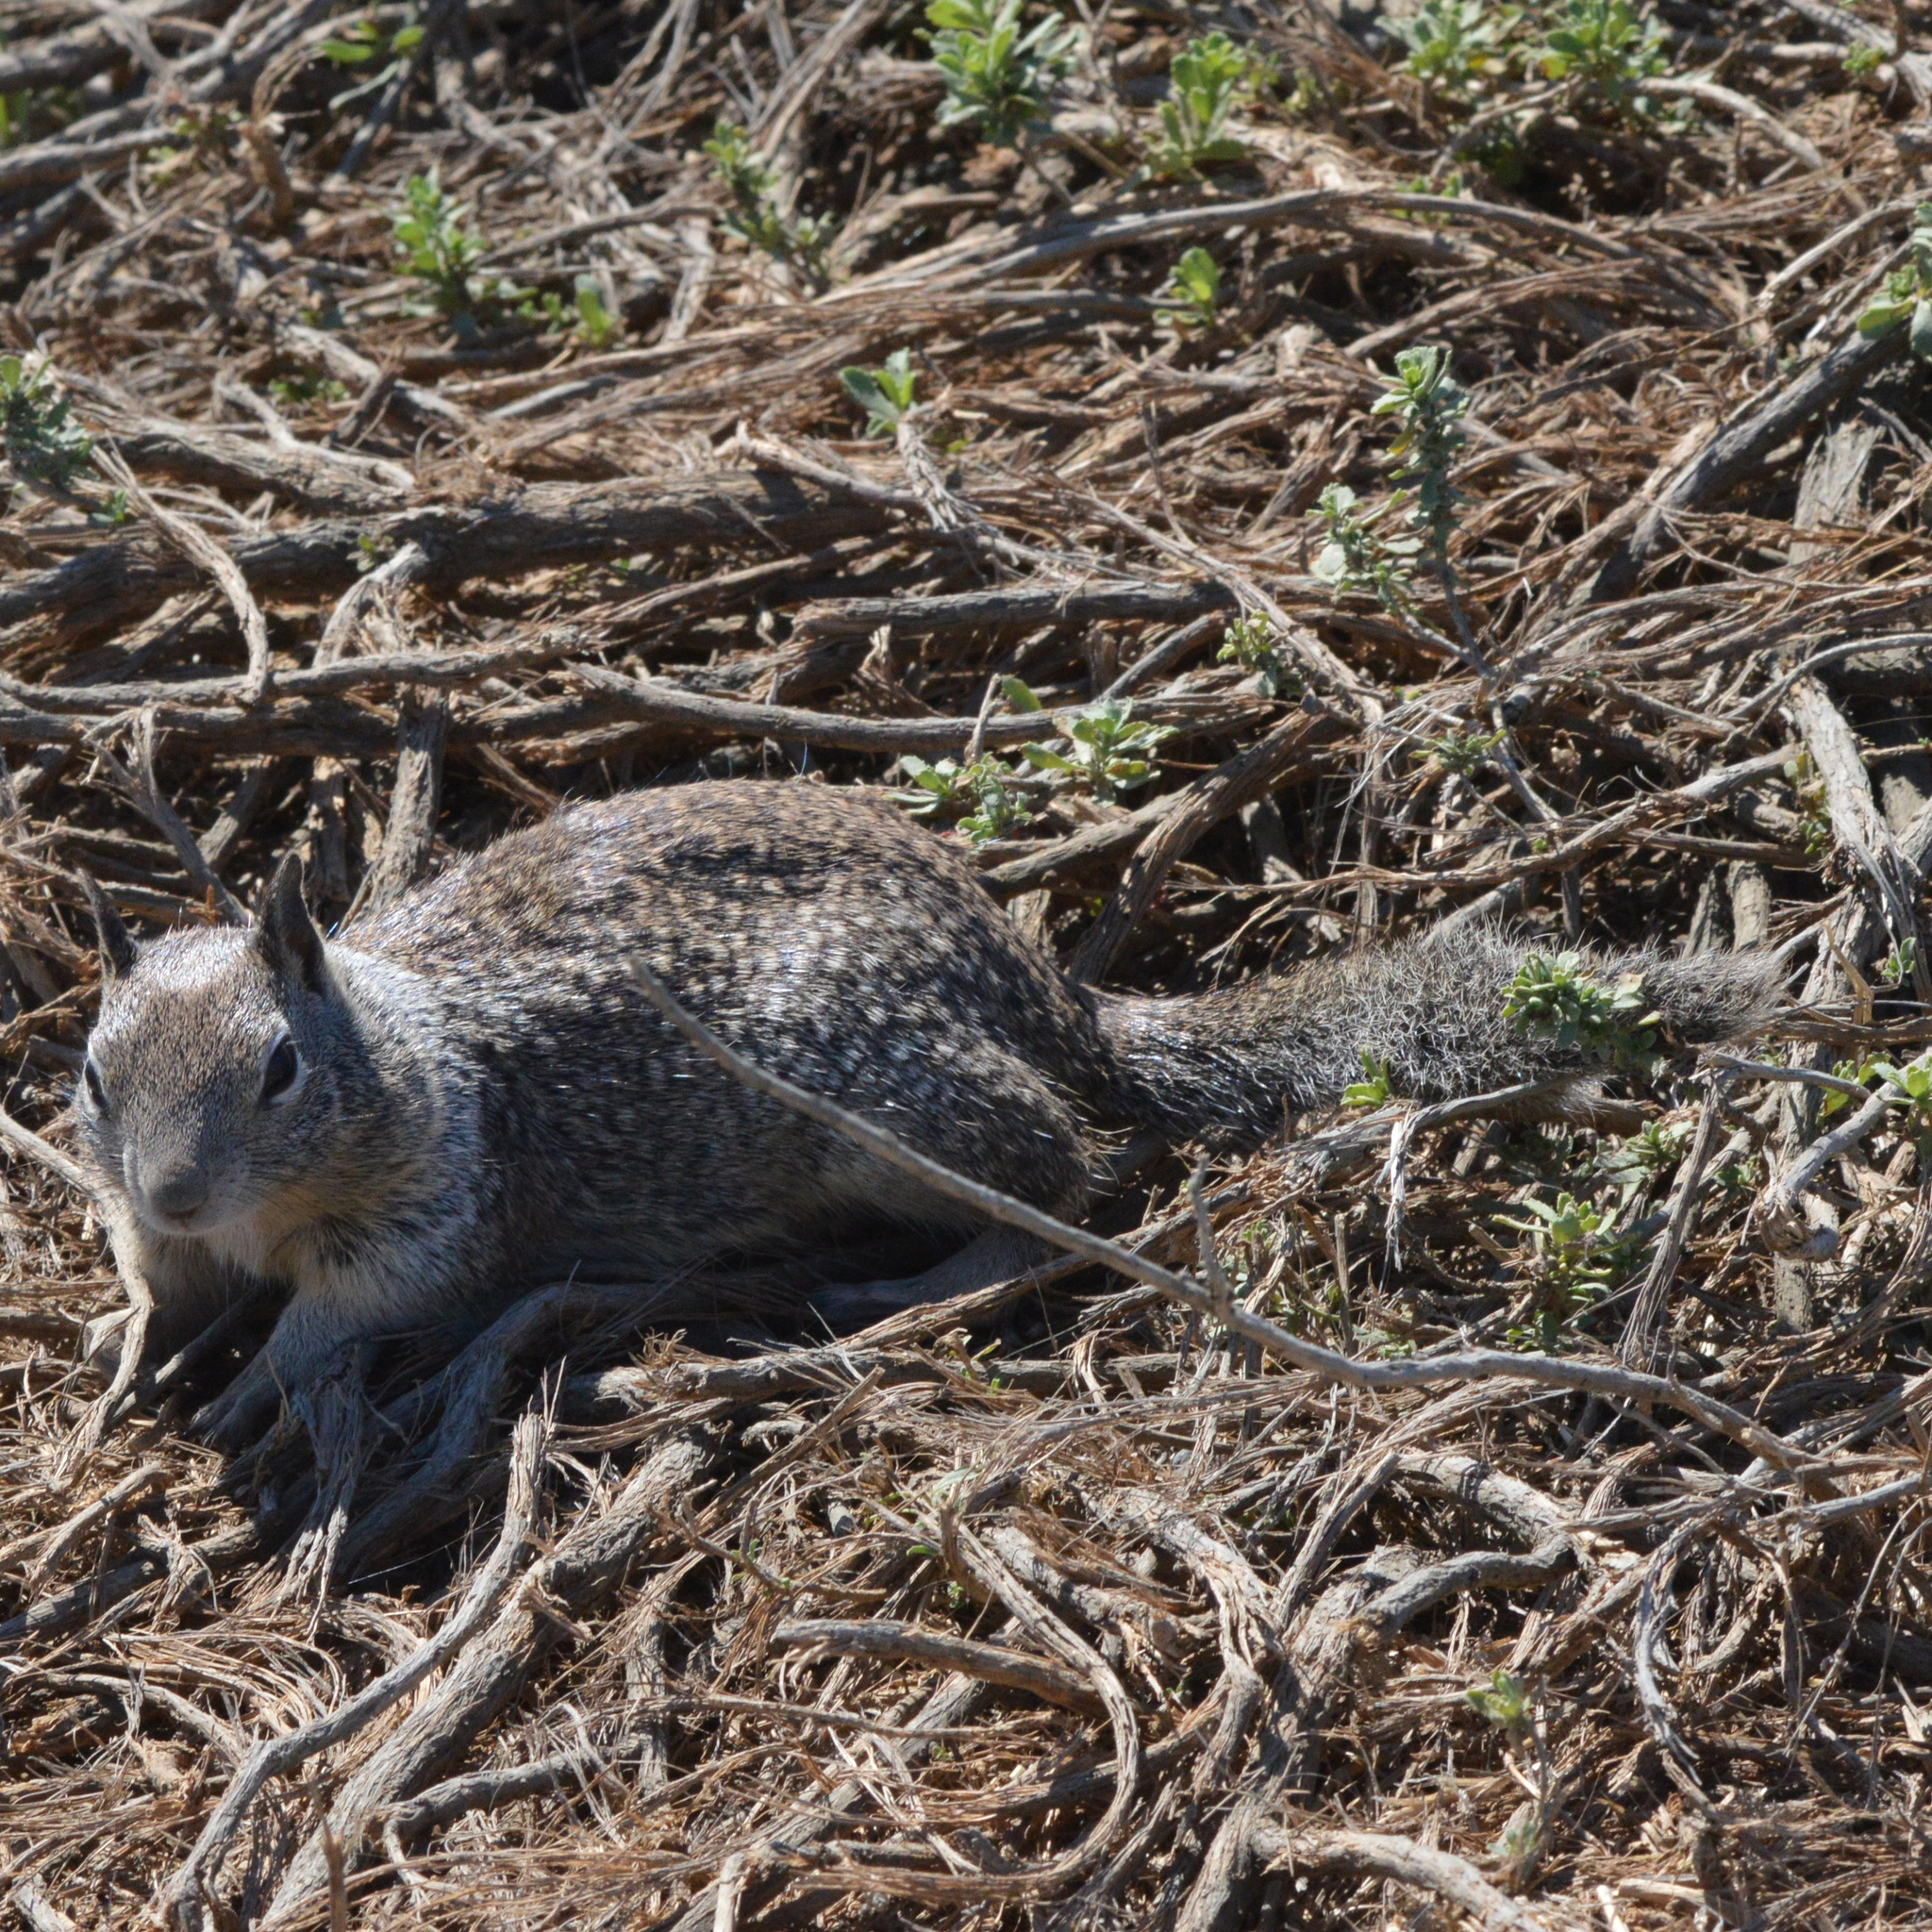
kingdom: Animalia
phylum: Chordata
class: Mammalia
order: Rodentia
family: Sciuridae
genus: Otospermophilus
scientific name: Otospermophilus beecheyi
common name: California ground squirrel
